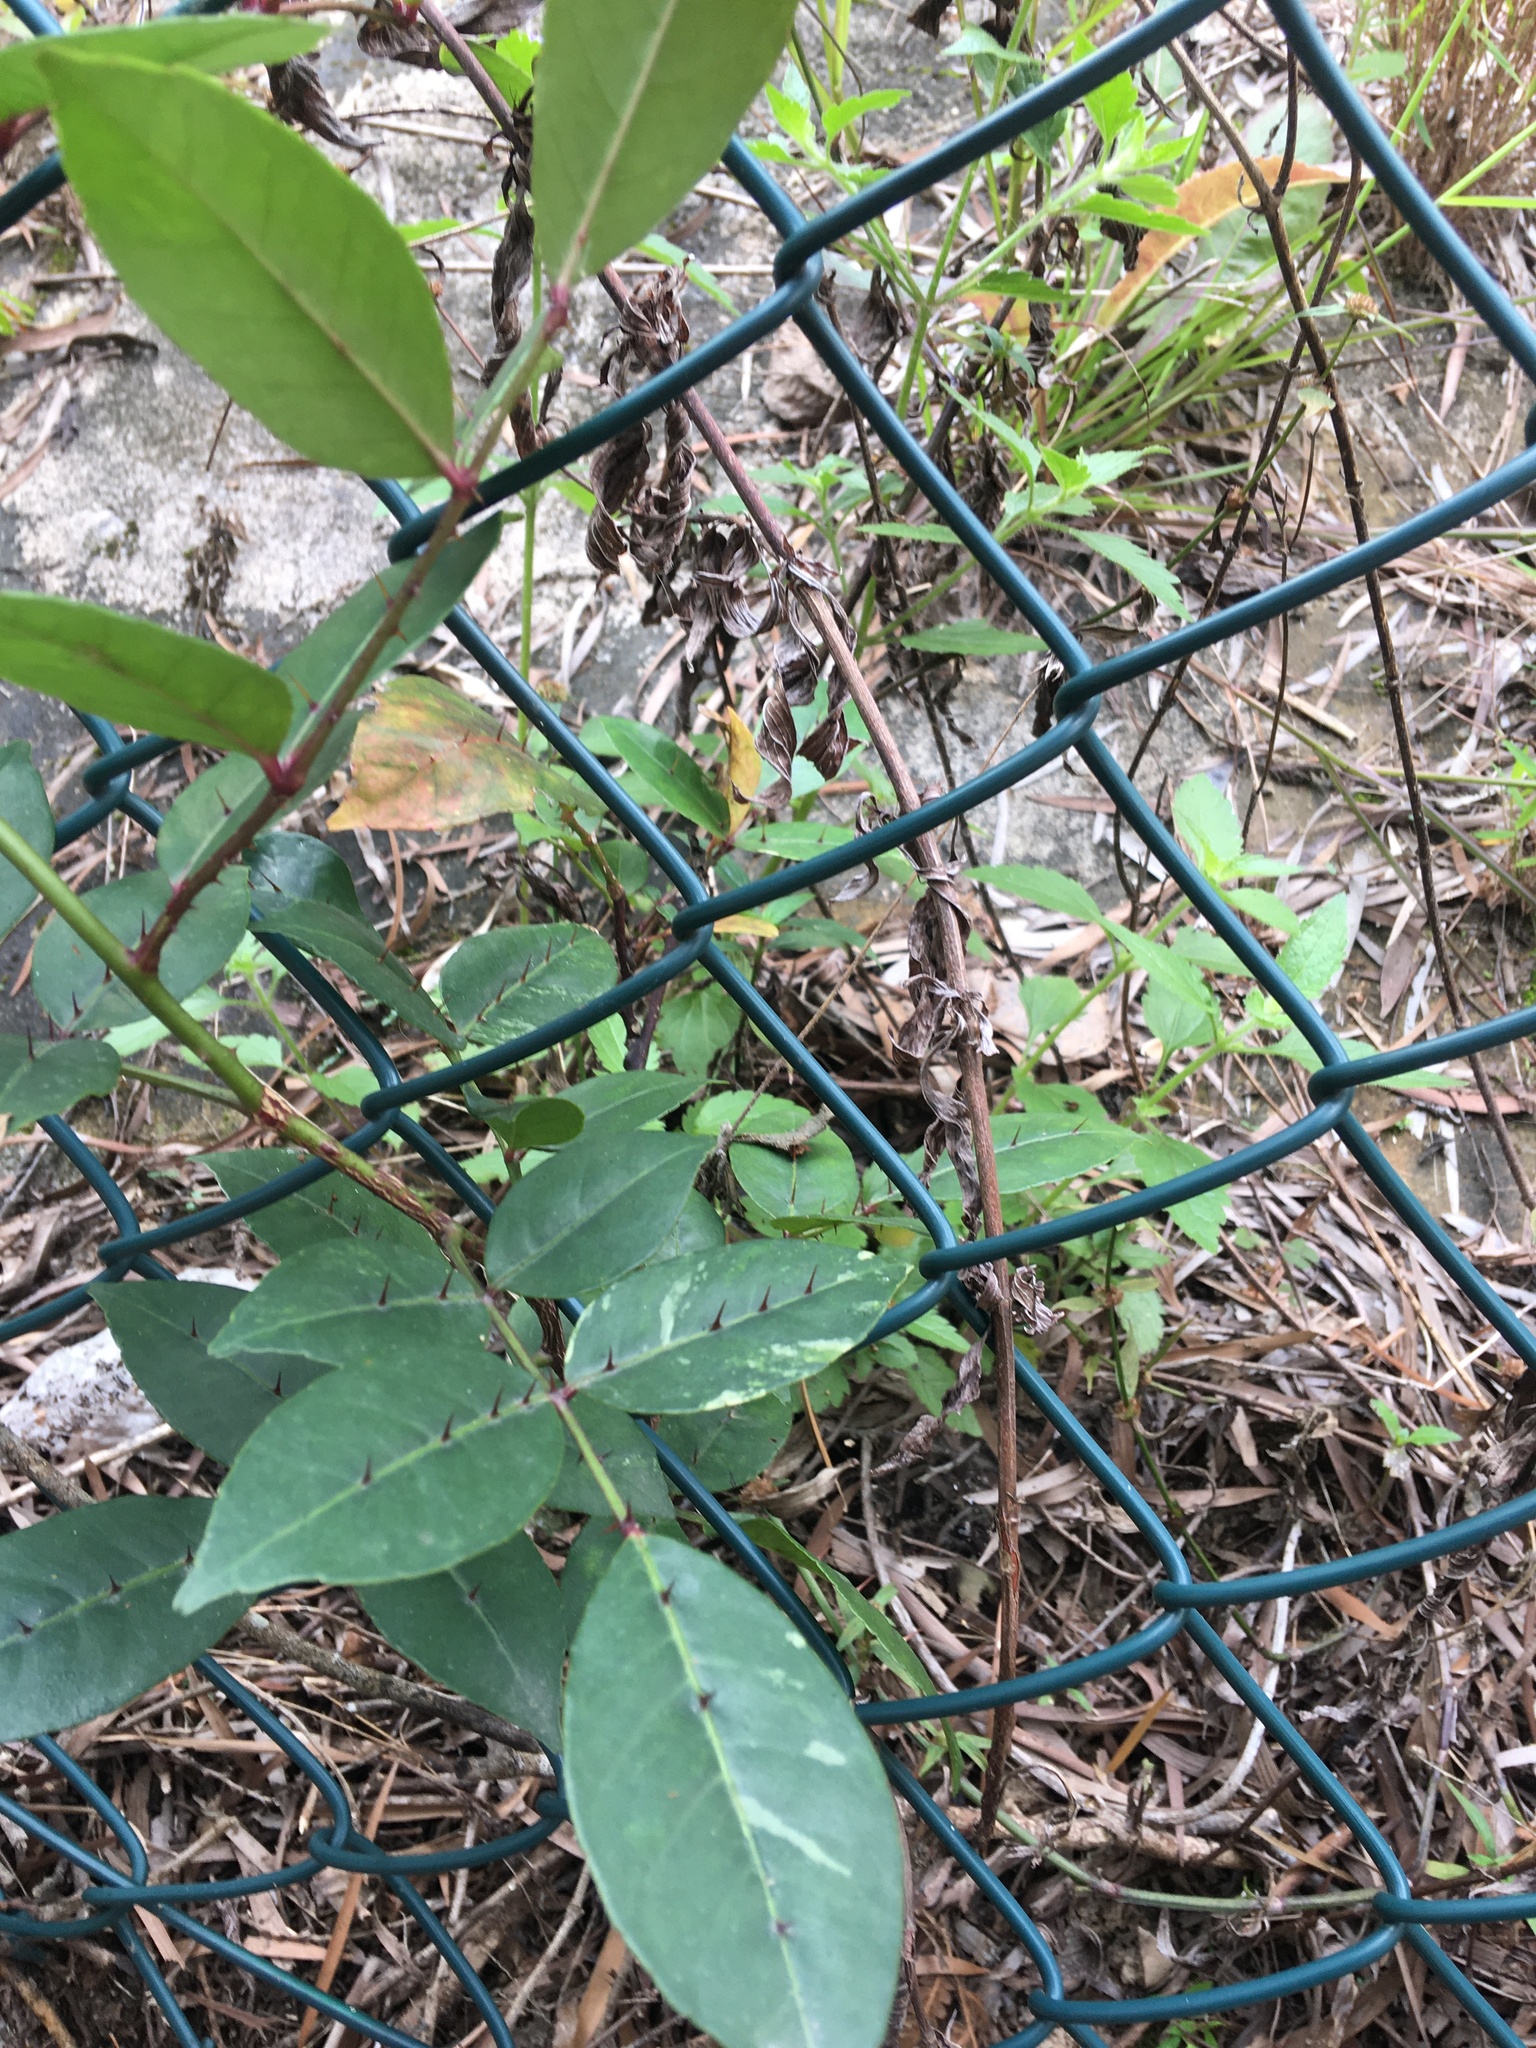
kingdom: Plantae
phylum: Tracheophyta
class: Magnoliopsida
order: Sapindales
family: Rutaceae
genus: Zanthoxylum
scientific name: Zanthoxylum nitidum
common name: Shiny-leaf prickly-ash
